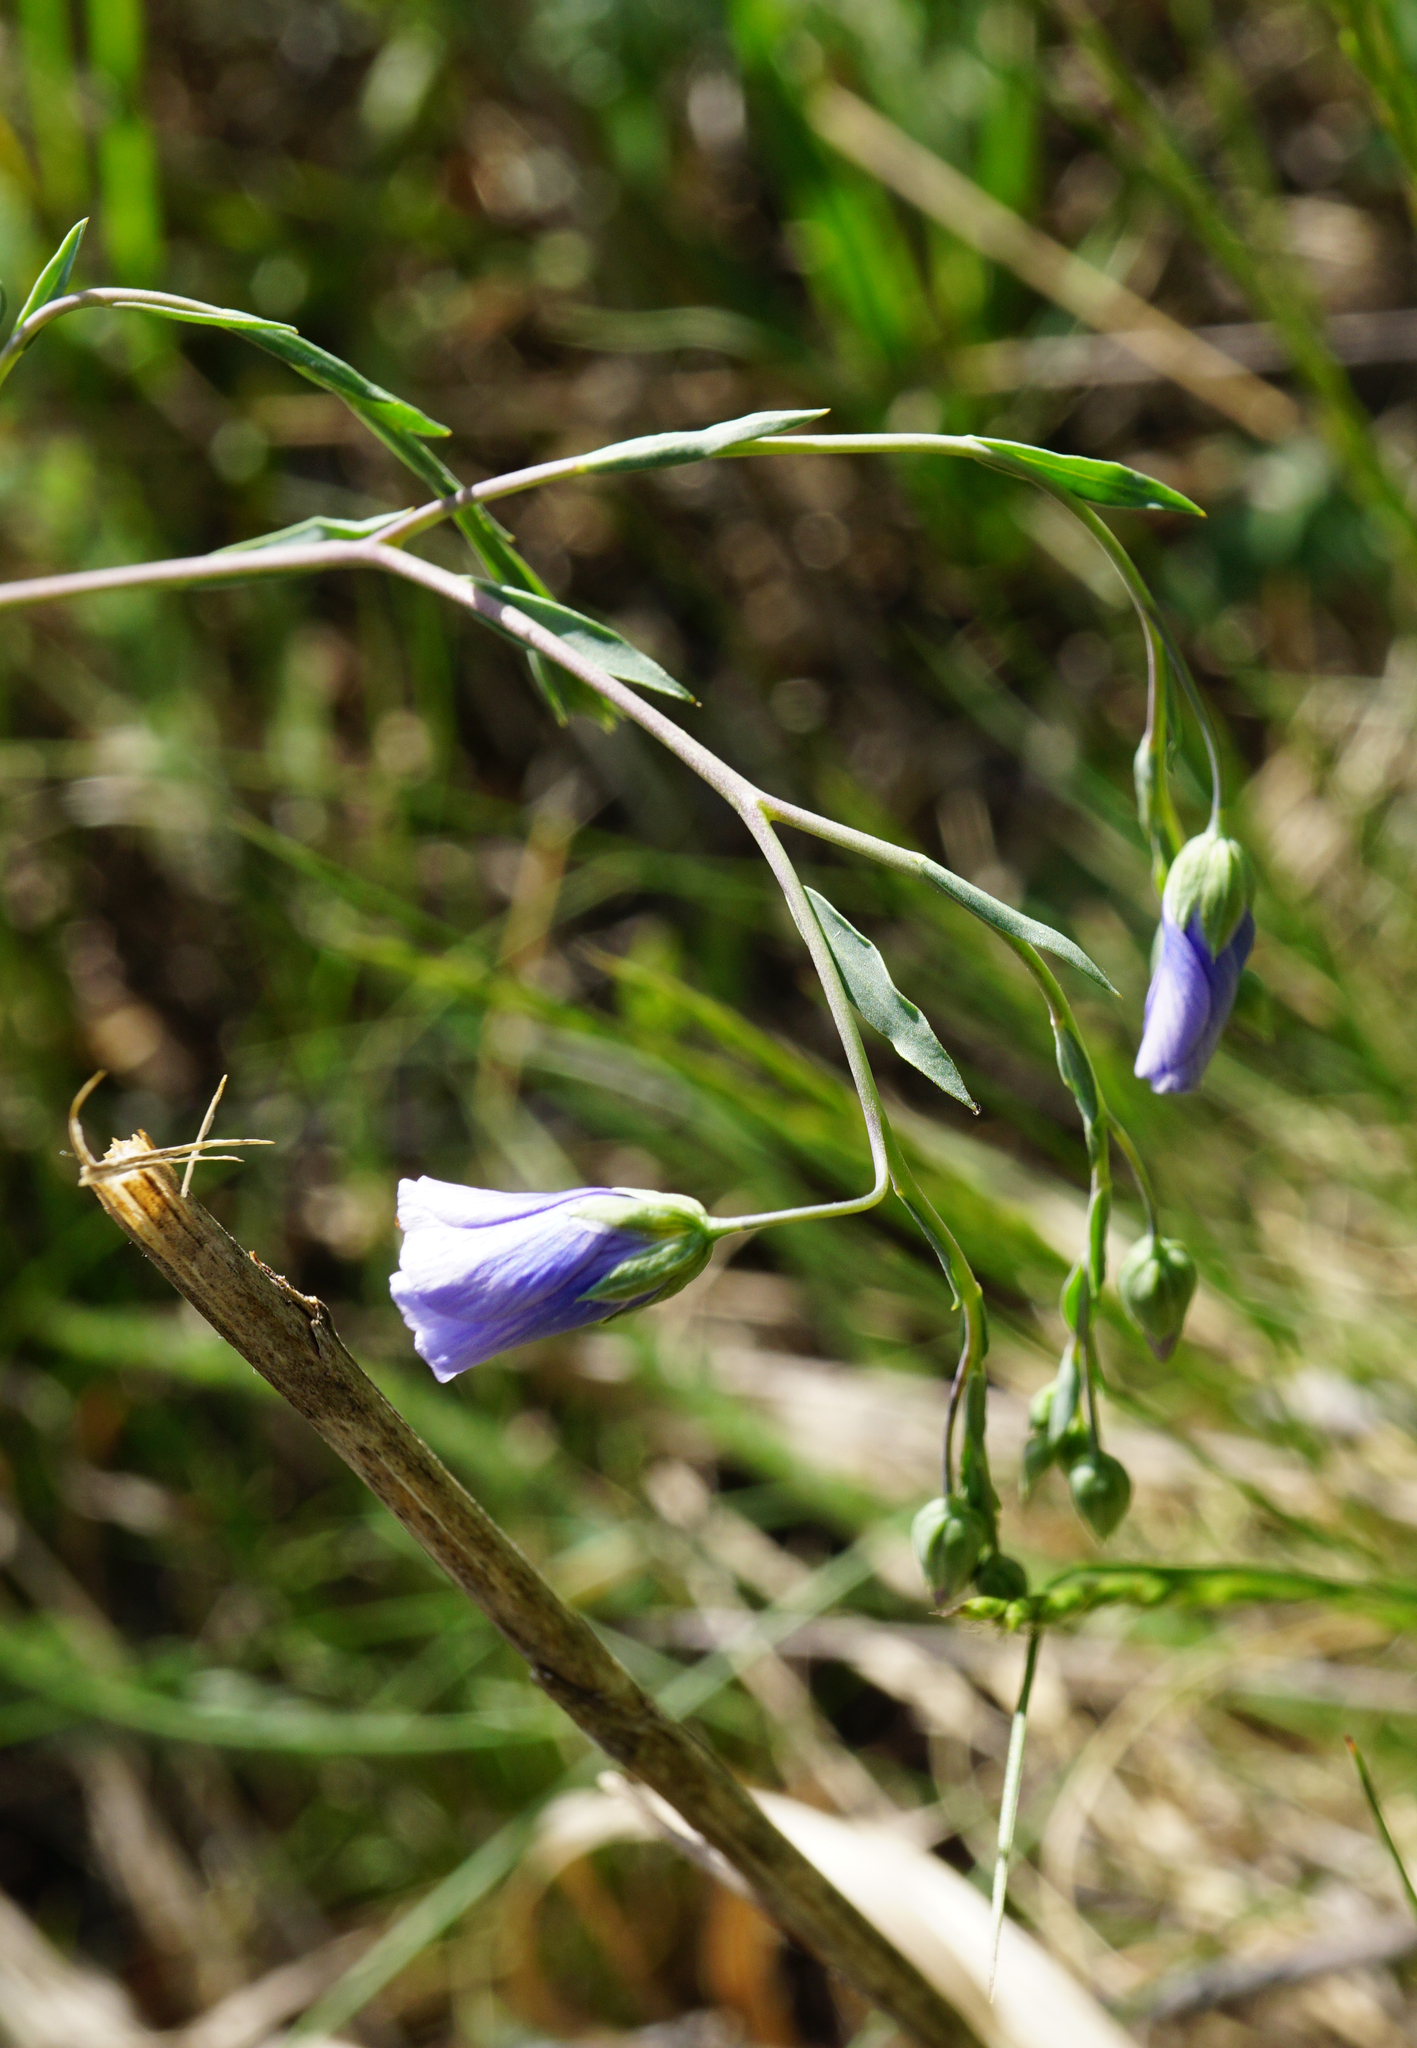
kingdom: Plantae
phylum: Tracheophyta
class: Magnoliopsida
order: Malpighiales
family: Linaceae
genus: Linum
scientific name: Linum austriacum
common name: Austrian flax
